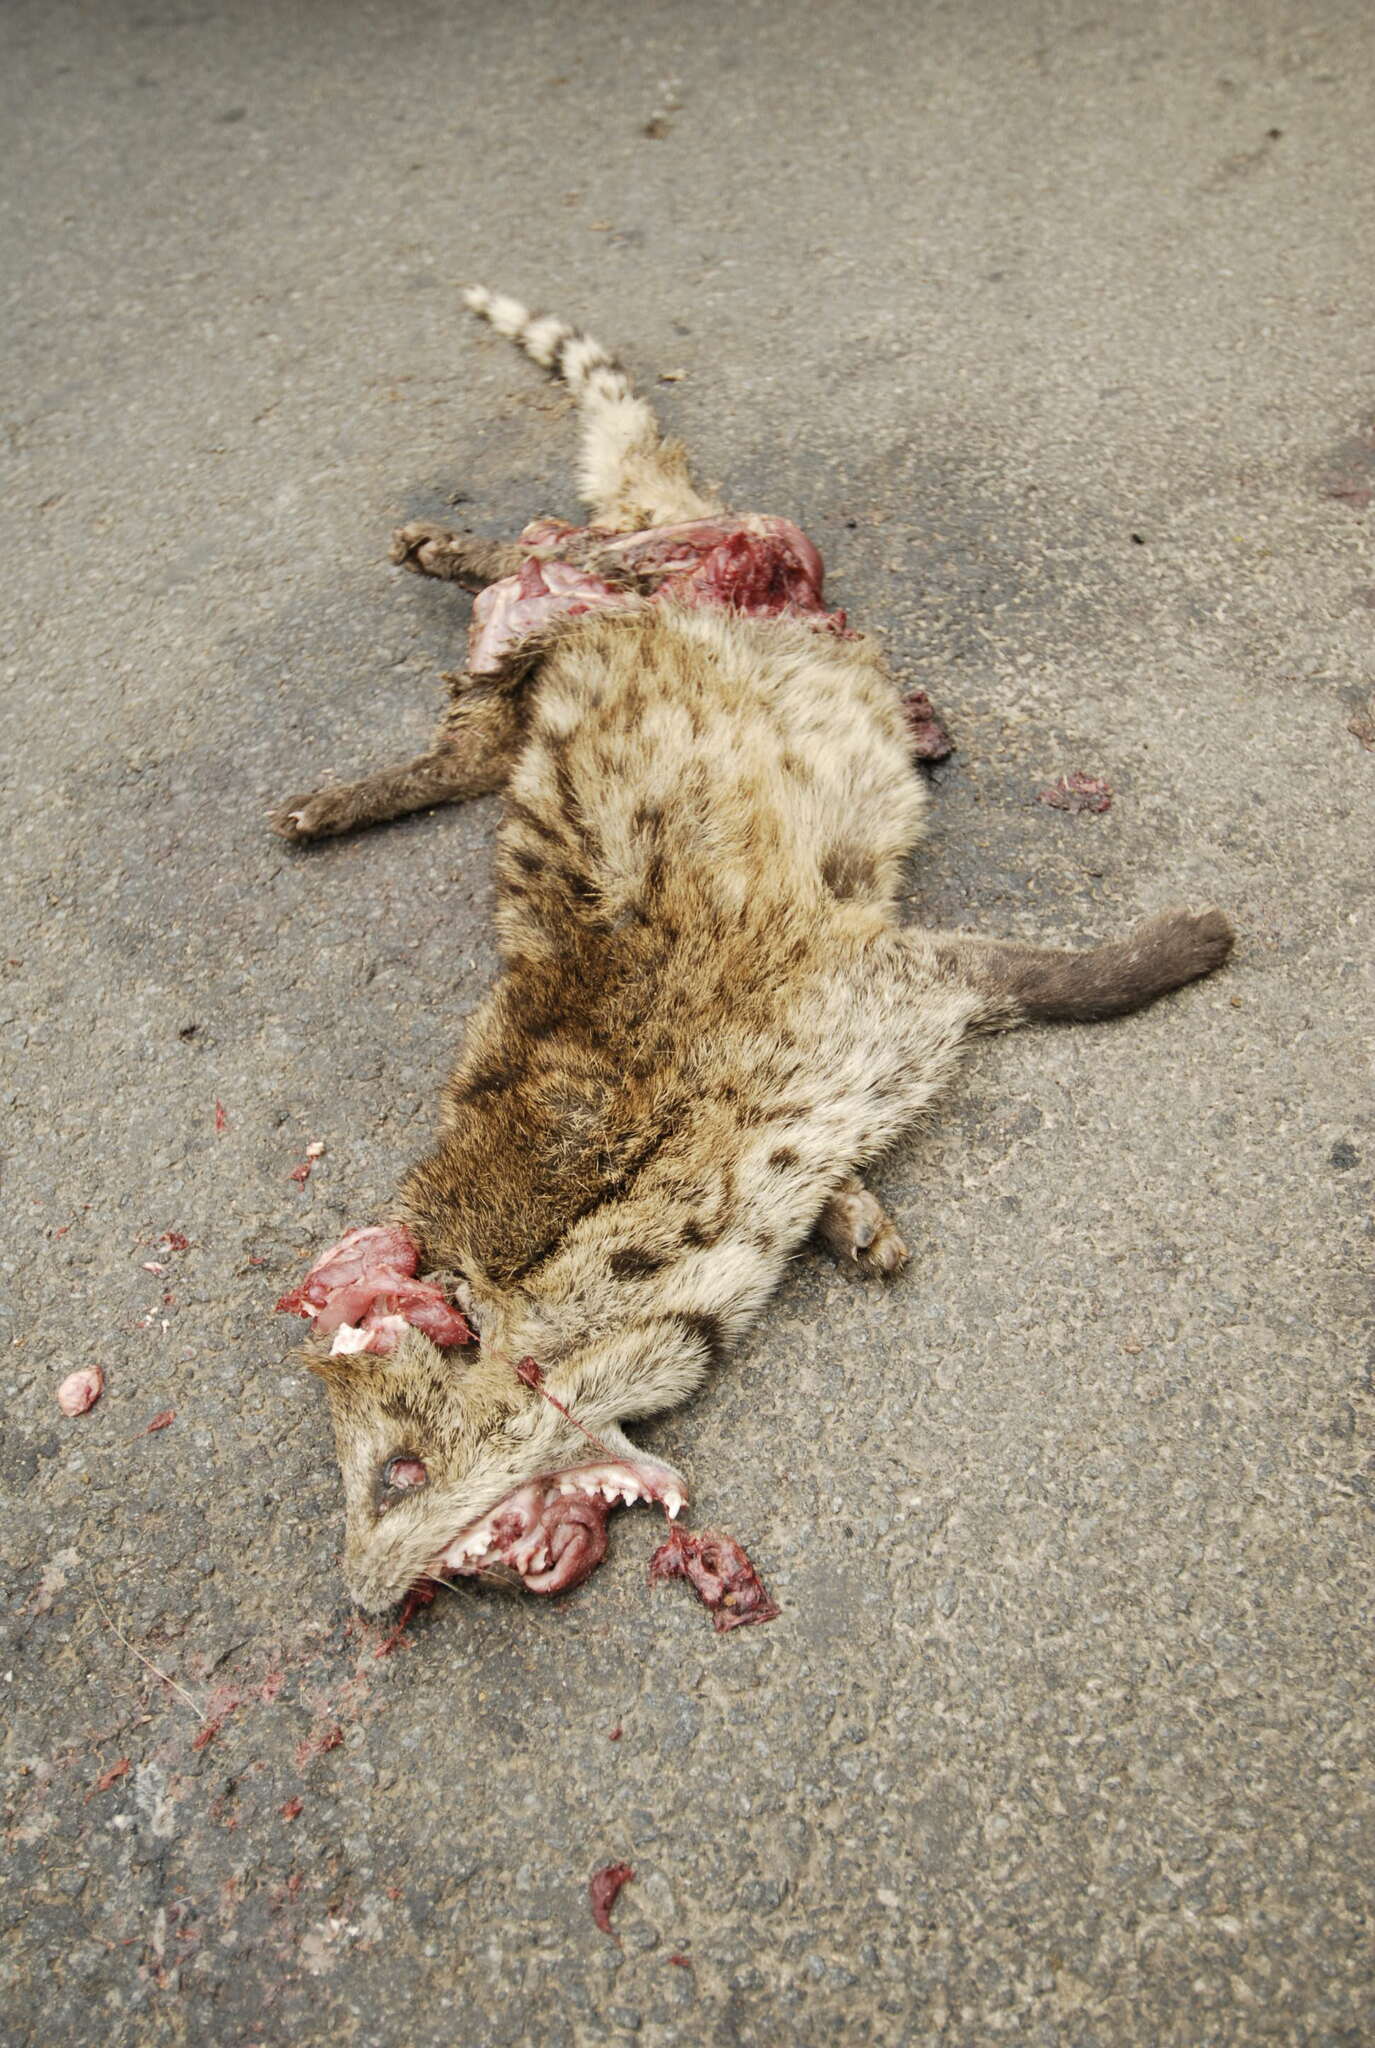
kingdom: Animalia
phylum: Chordata
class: Mammalia
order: Carnivora
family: Viverridae
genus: Viverricula
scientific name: Viverricula indica
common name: Small indian civet
